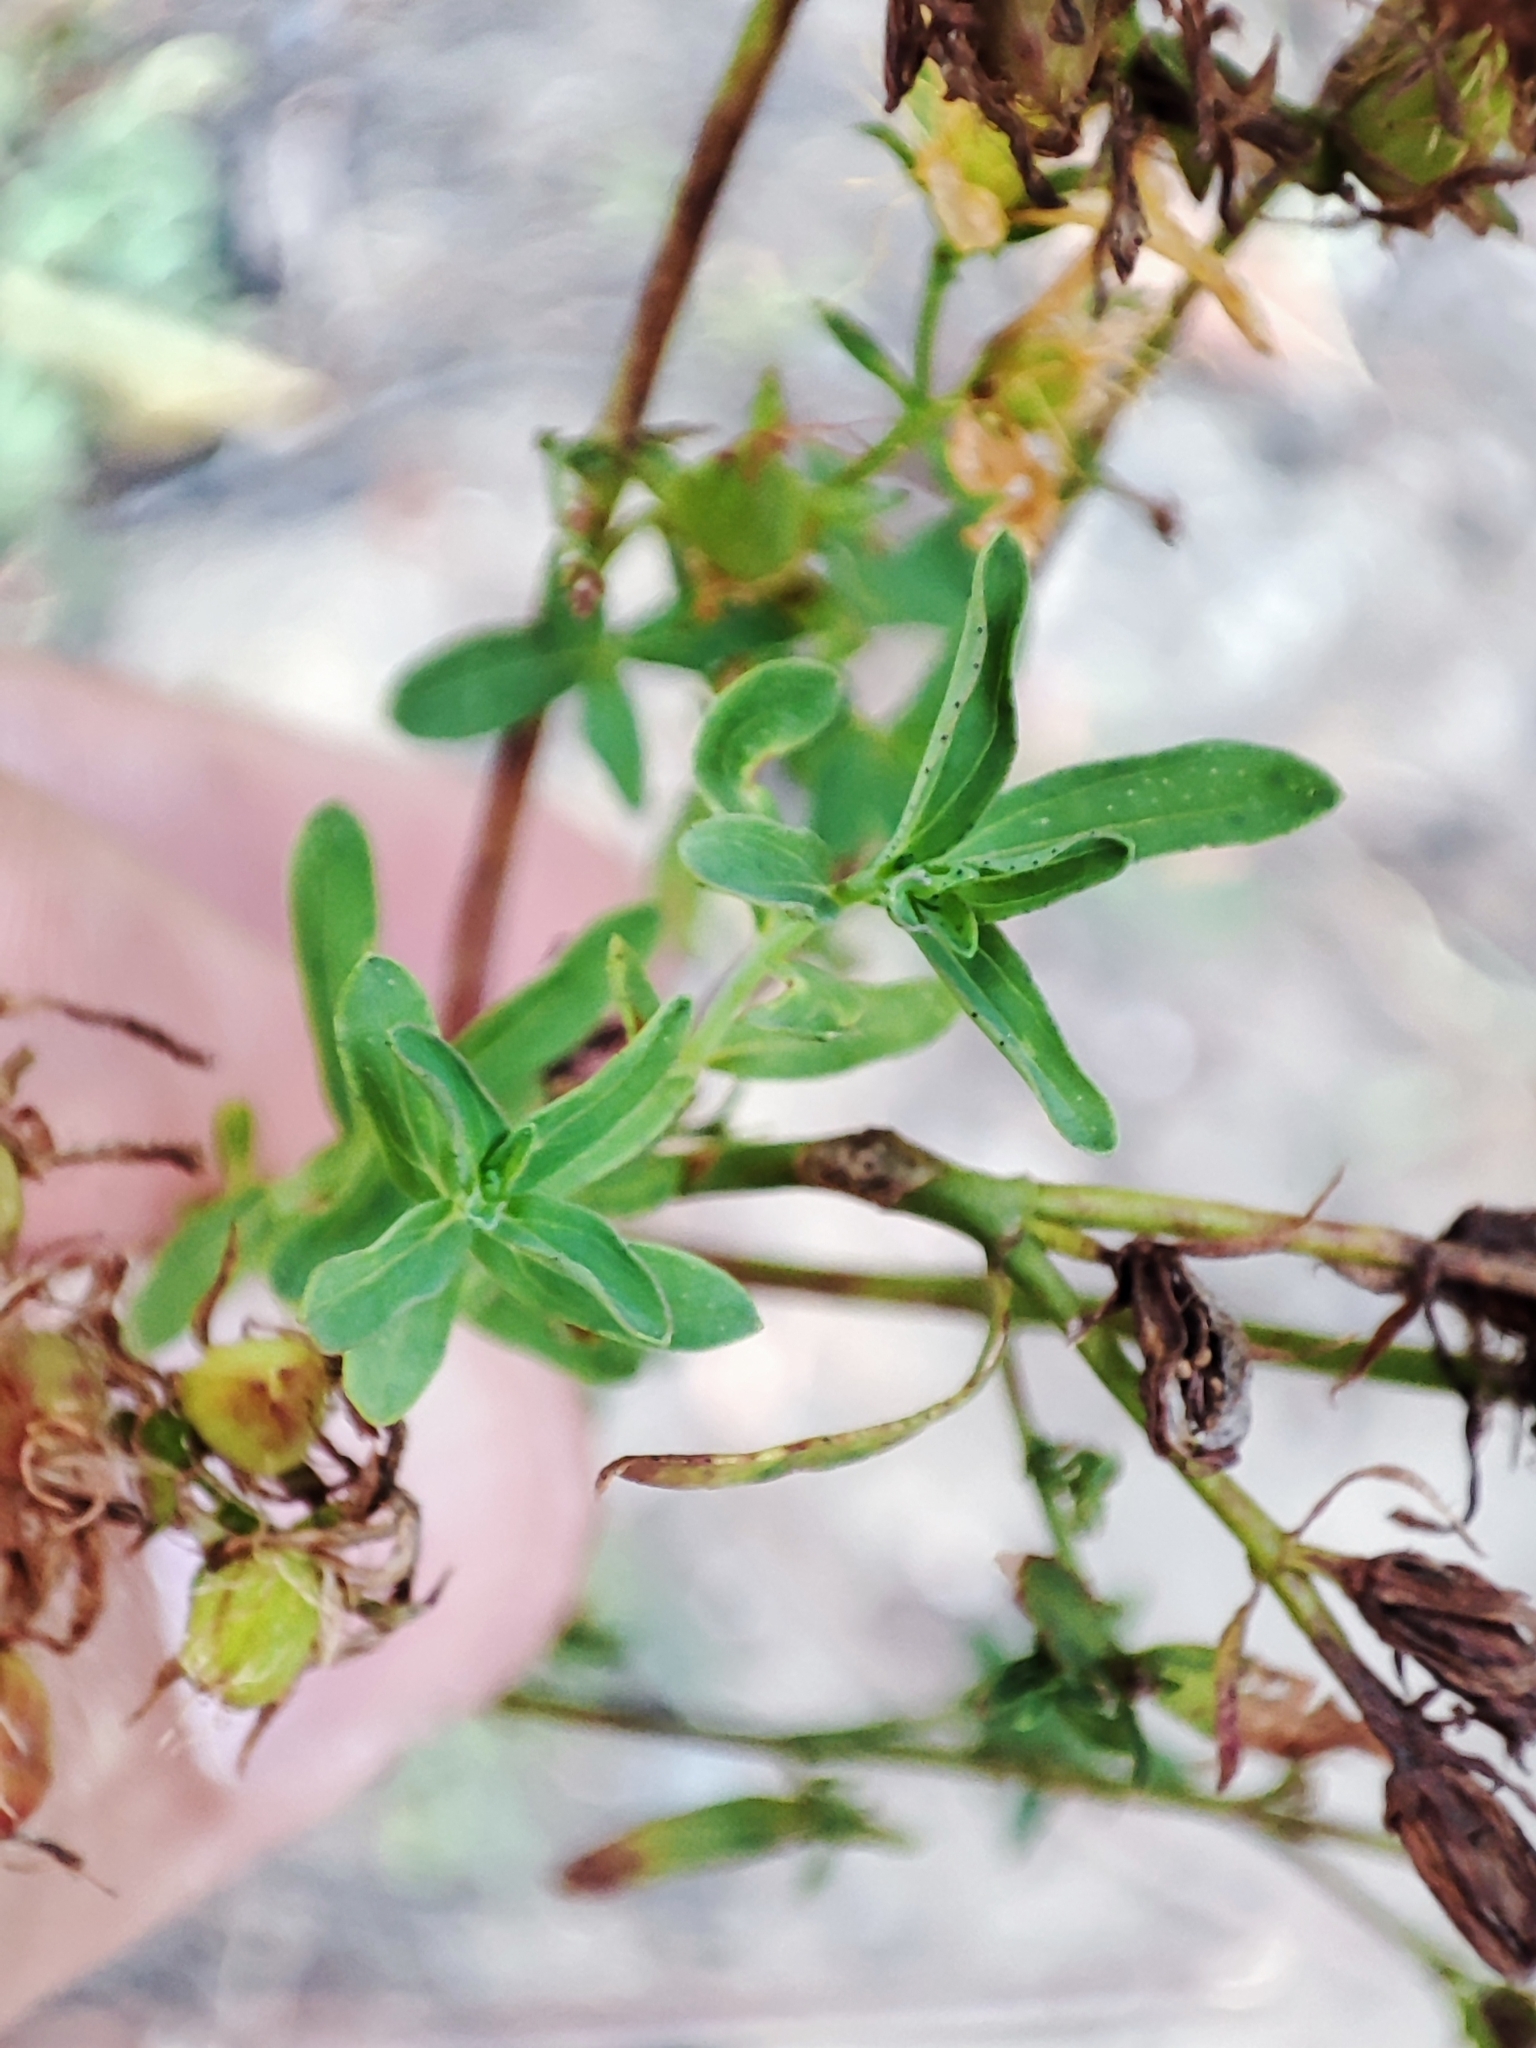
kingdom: Plantae
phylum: Tracheophyta
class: Magnoliopsida
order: Malpighiales
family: Hypericaceae
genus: Hypericum
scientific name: Hypericum perforatum
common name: Common st. johnswort
